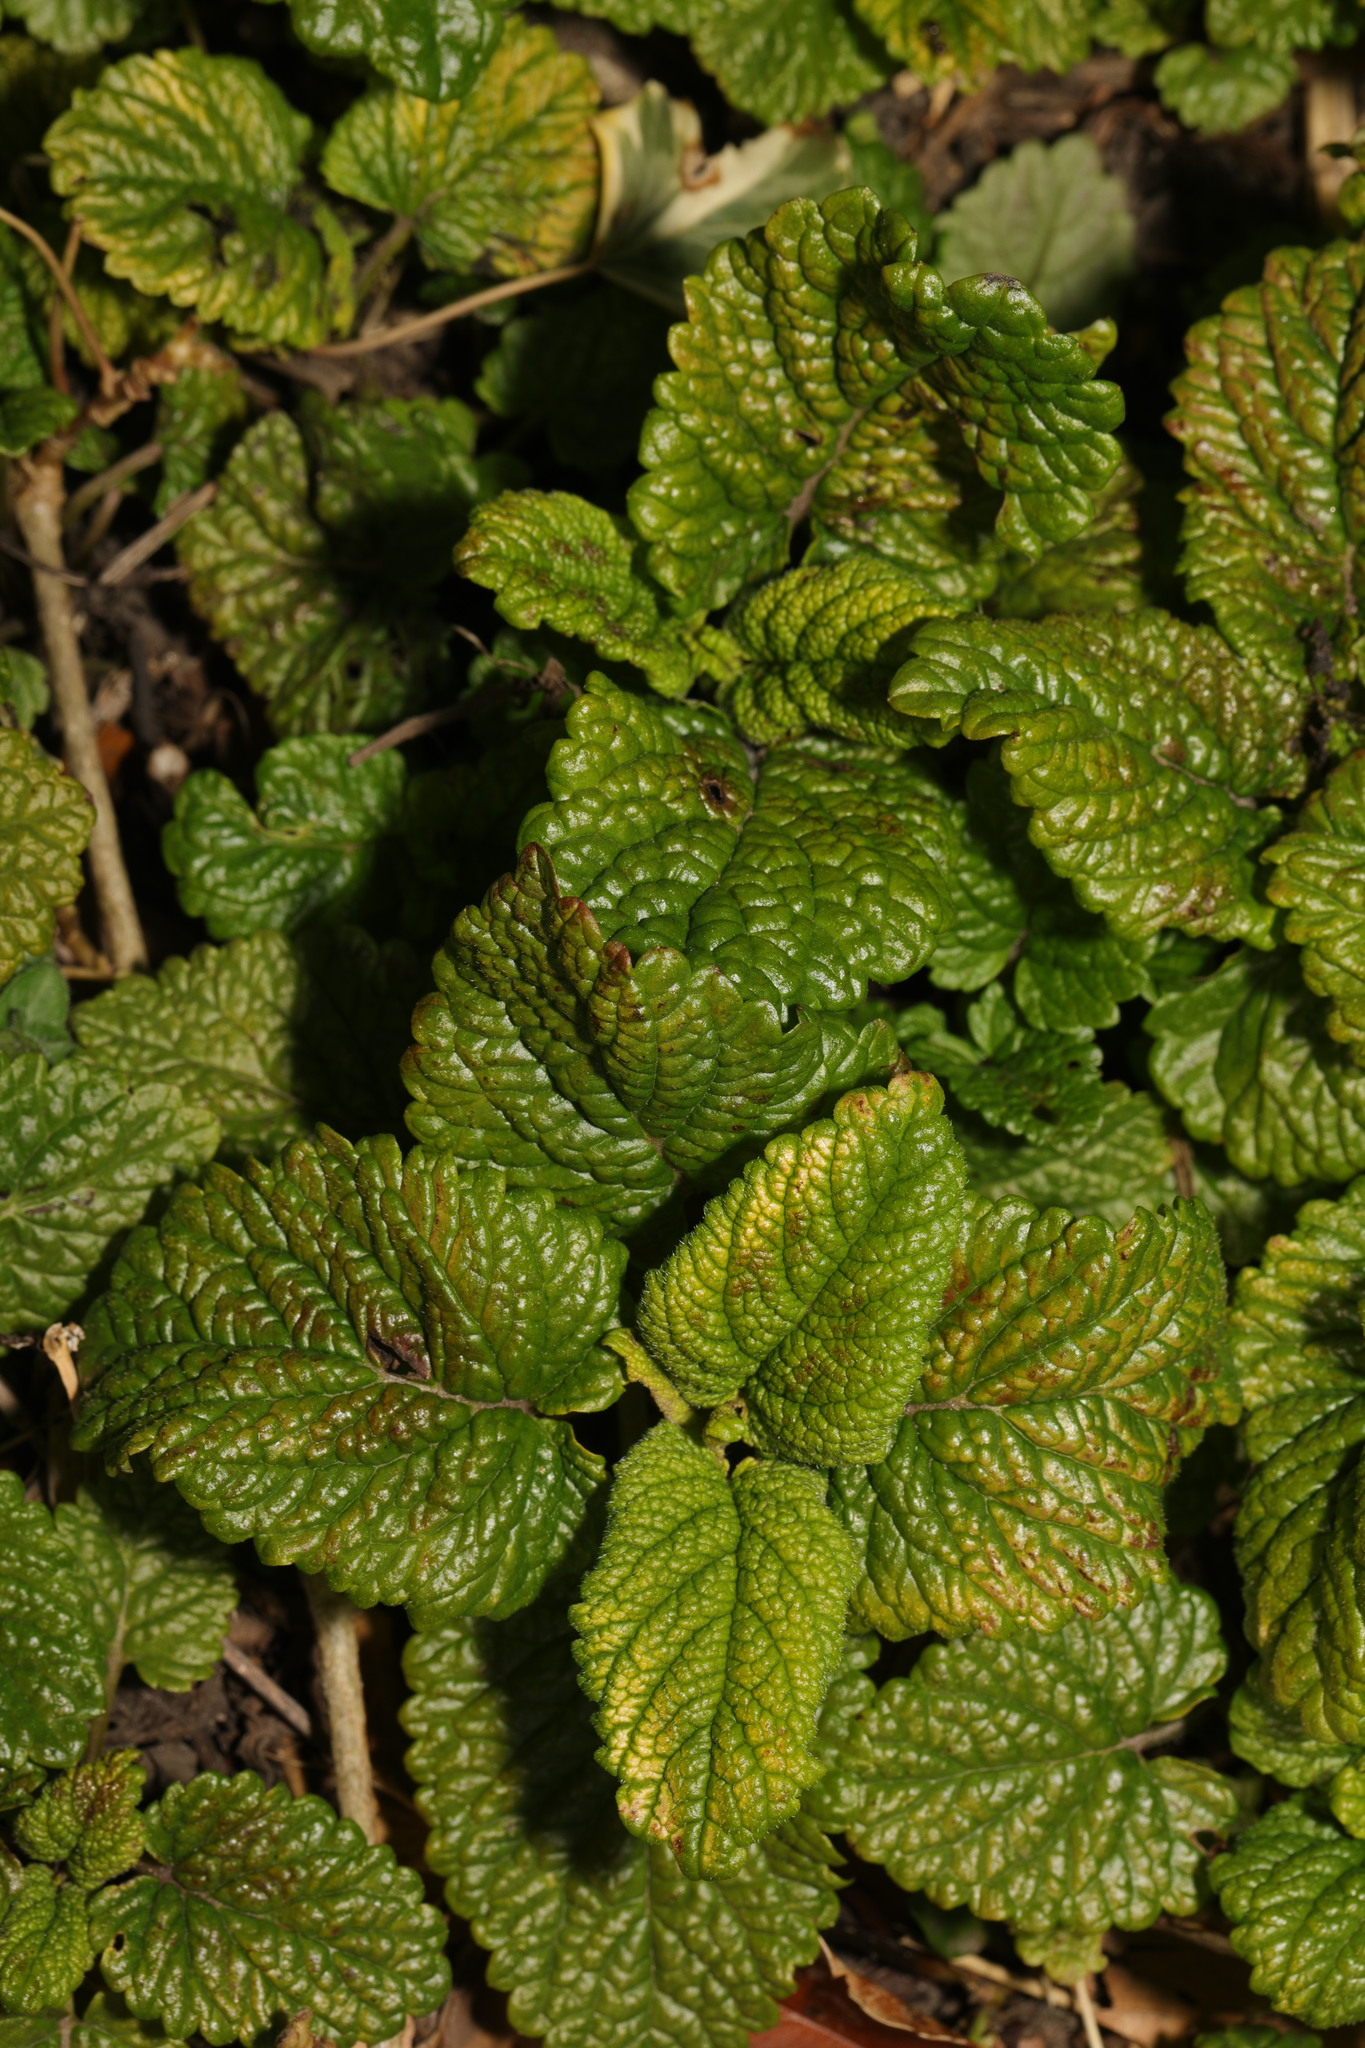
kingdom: Plantae
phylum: Tracheophyta
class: Magnoliopsida
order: Lamiales
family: Lamiaceae
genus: Melissa
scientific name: Melissa officinalis
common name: Balm
